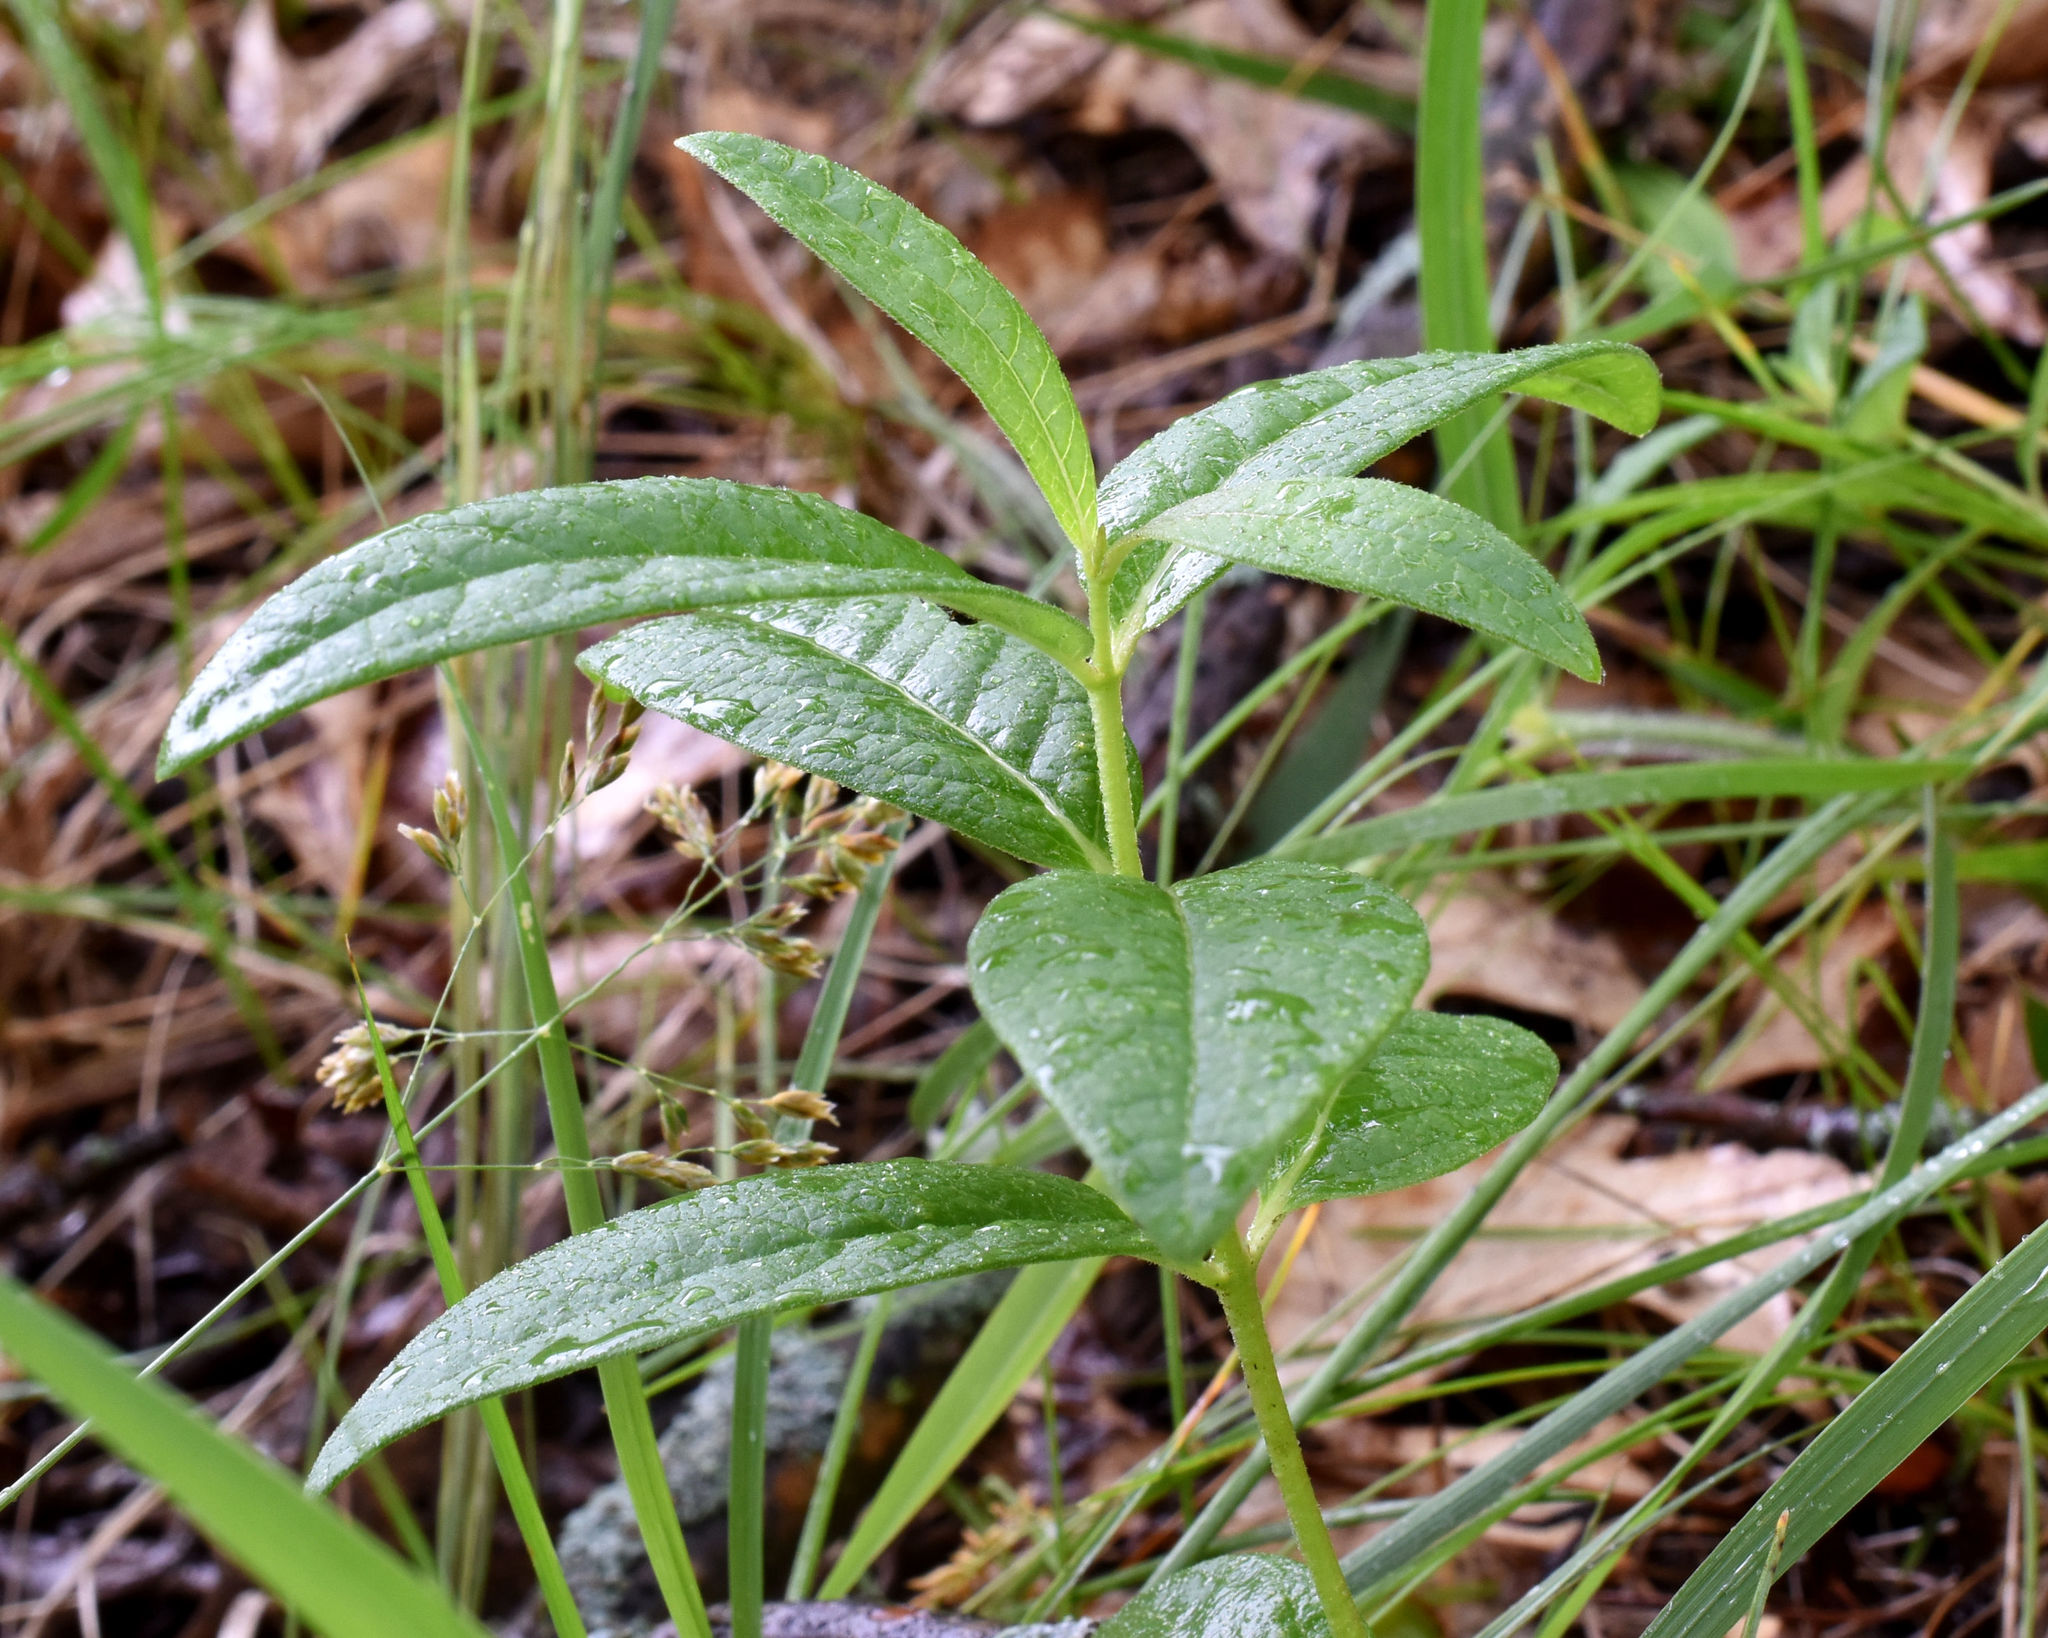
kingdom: Plantae
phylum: Tracheophyta
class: Magnoliopsida
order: Gentianales
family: Apocynaceae
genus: Asclepias
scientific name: Asclepias ovalifolia
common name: Dwarf milkweed
